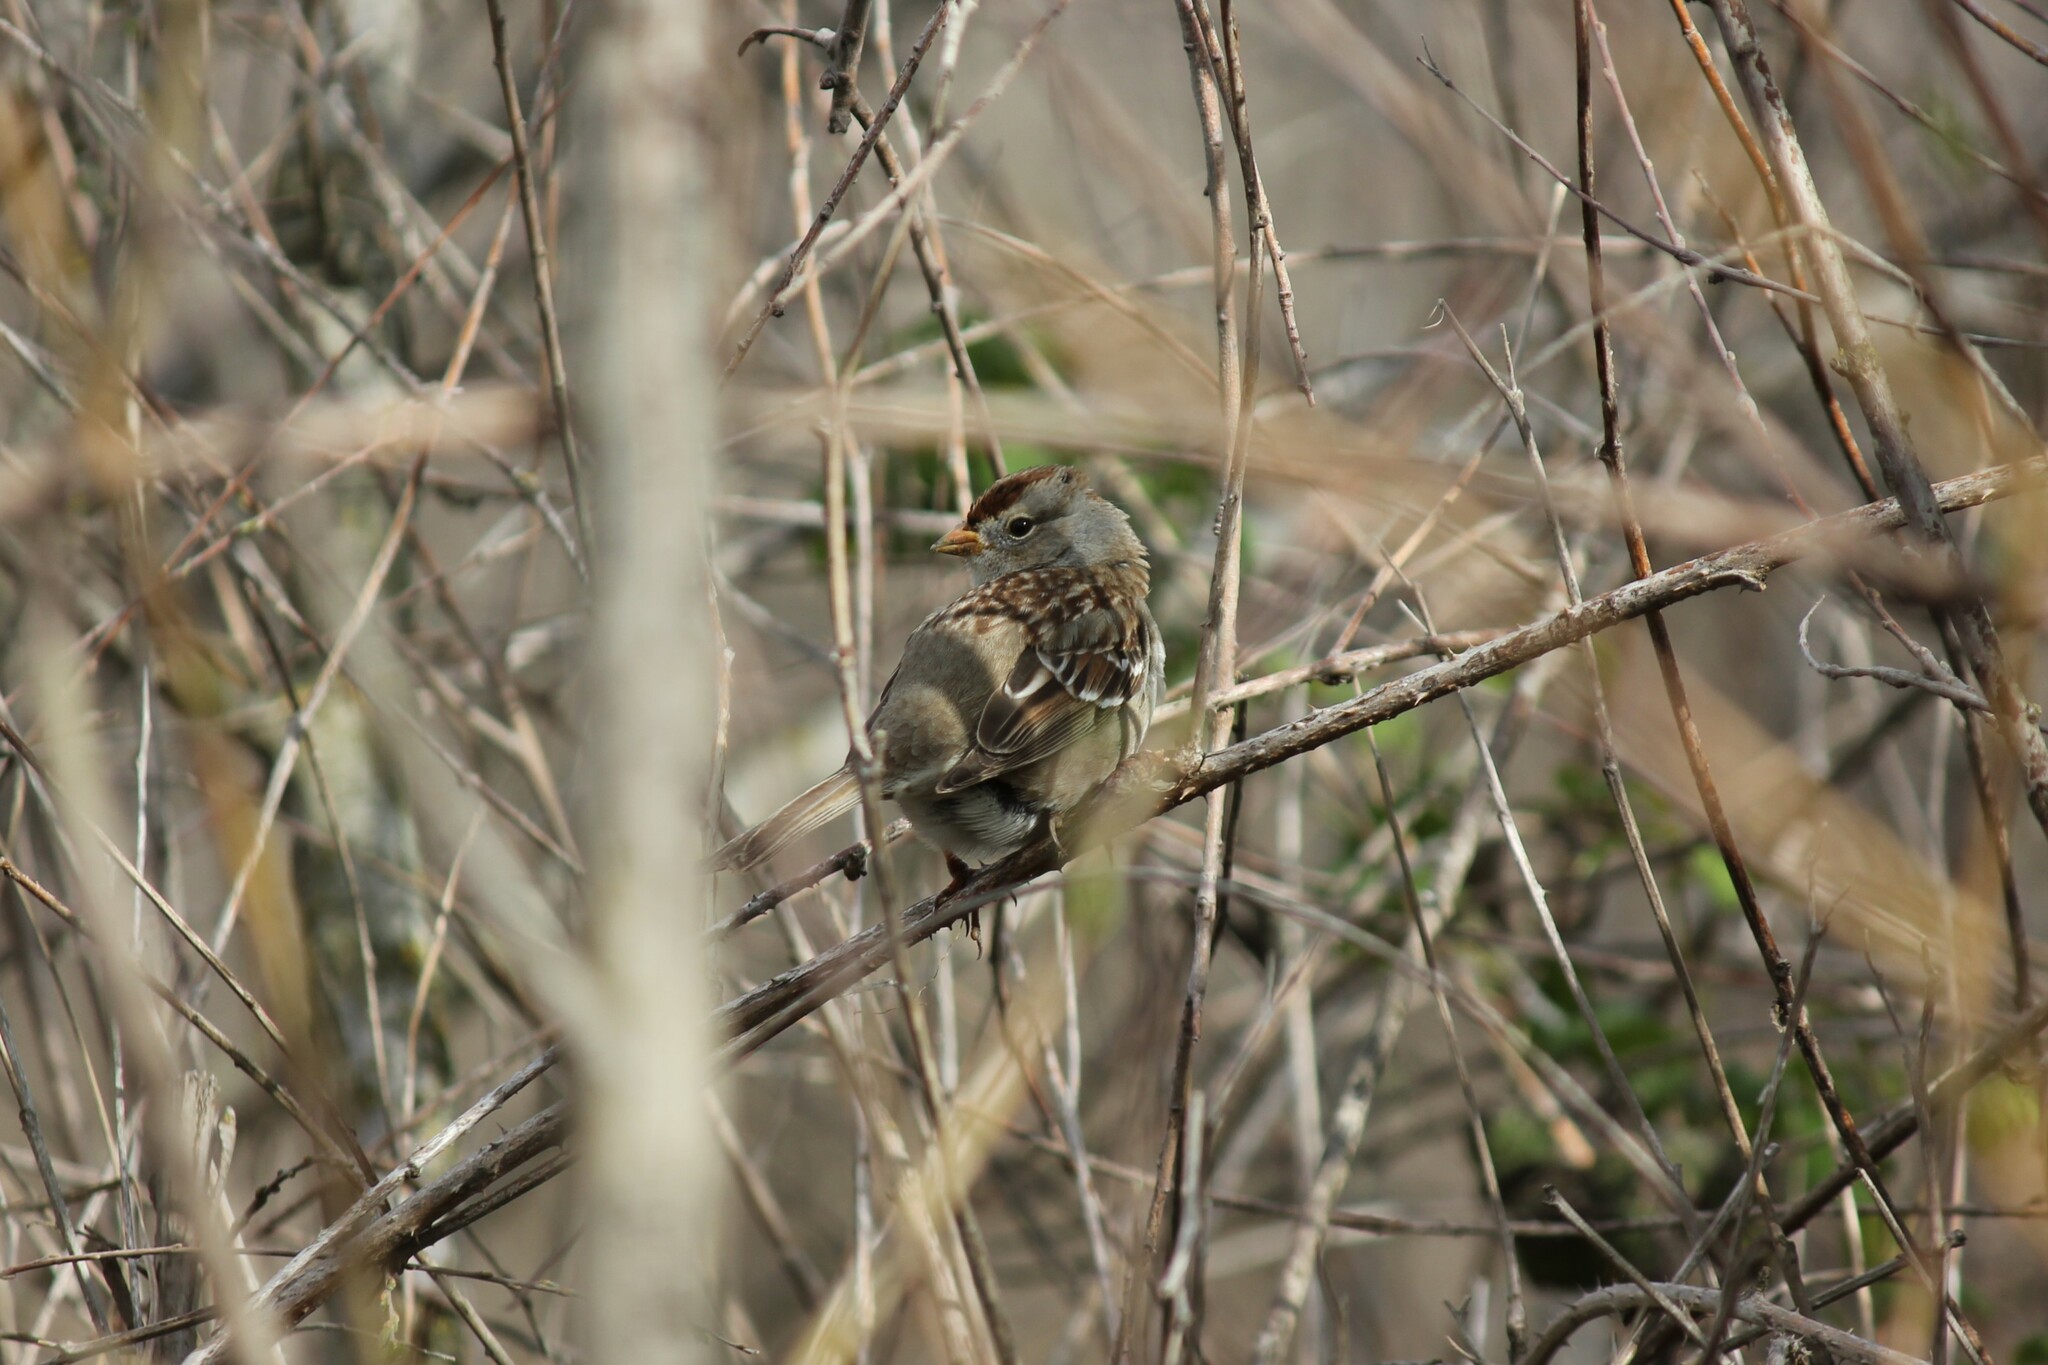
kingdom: Animalia
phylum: Chordata
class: Aves
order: Passeriformes
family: Passerellidae
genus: Zonotrichia
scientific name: Zonotrichia leucophrys
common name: White-crowned sparrow
